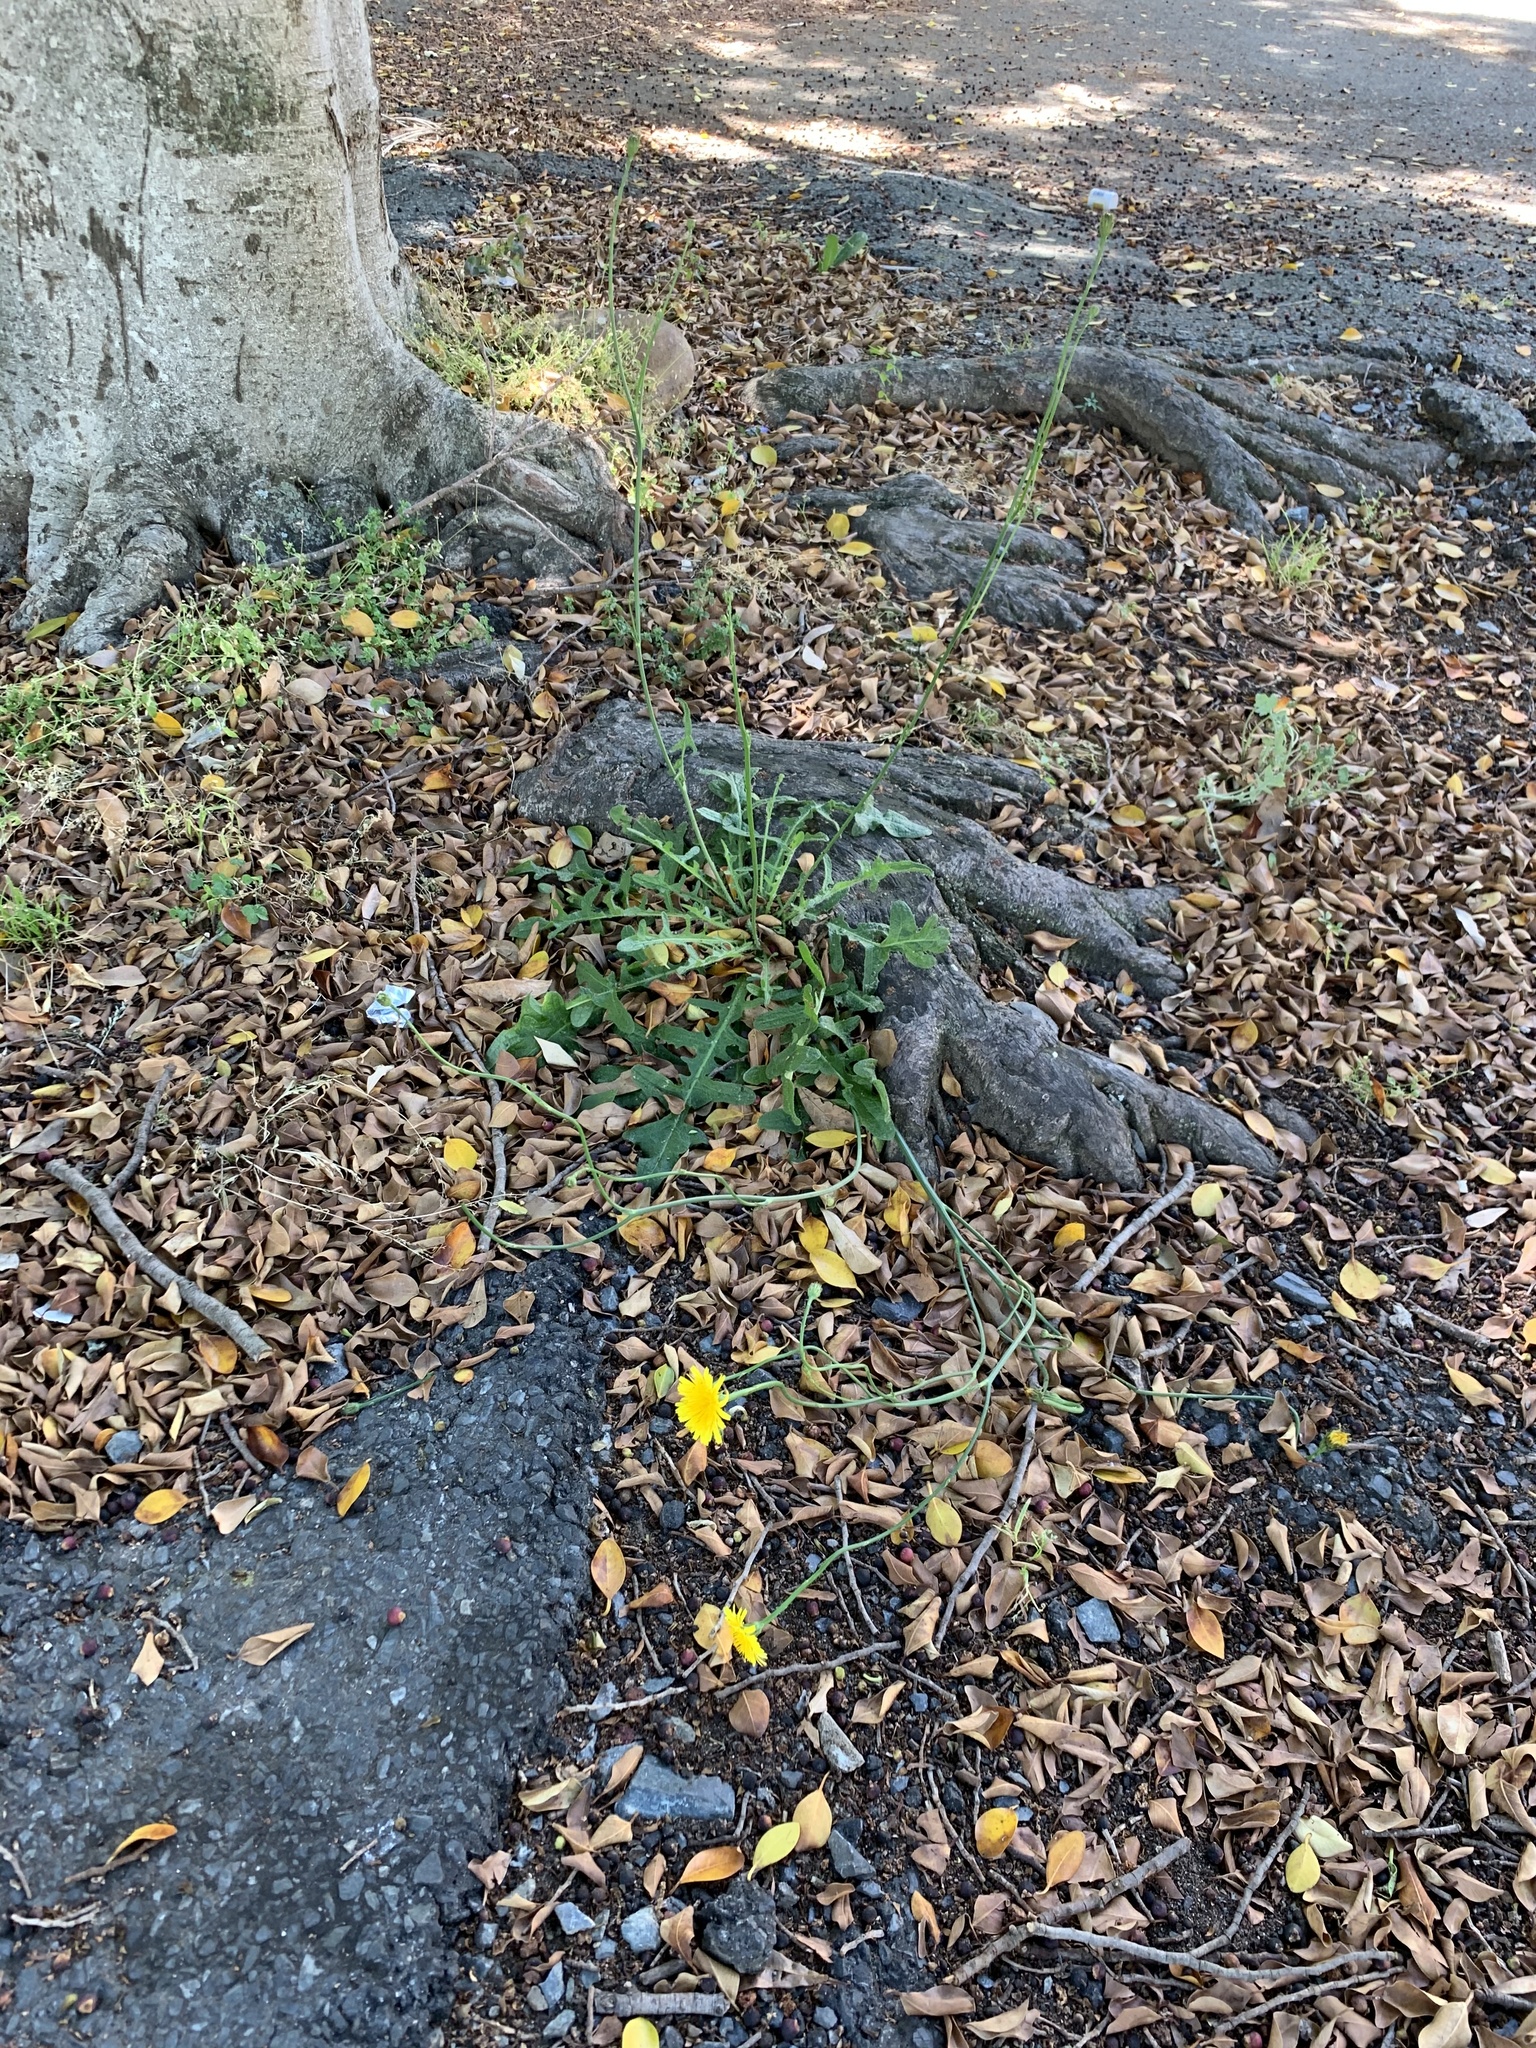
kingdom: Plantae
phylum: Tracheophyta
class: Magnoliopsida
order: Asterales
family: Asteraceae
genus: Hypochaeris
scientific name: Hypochaeris radicata
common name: Flatweed
